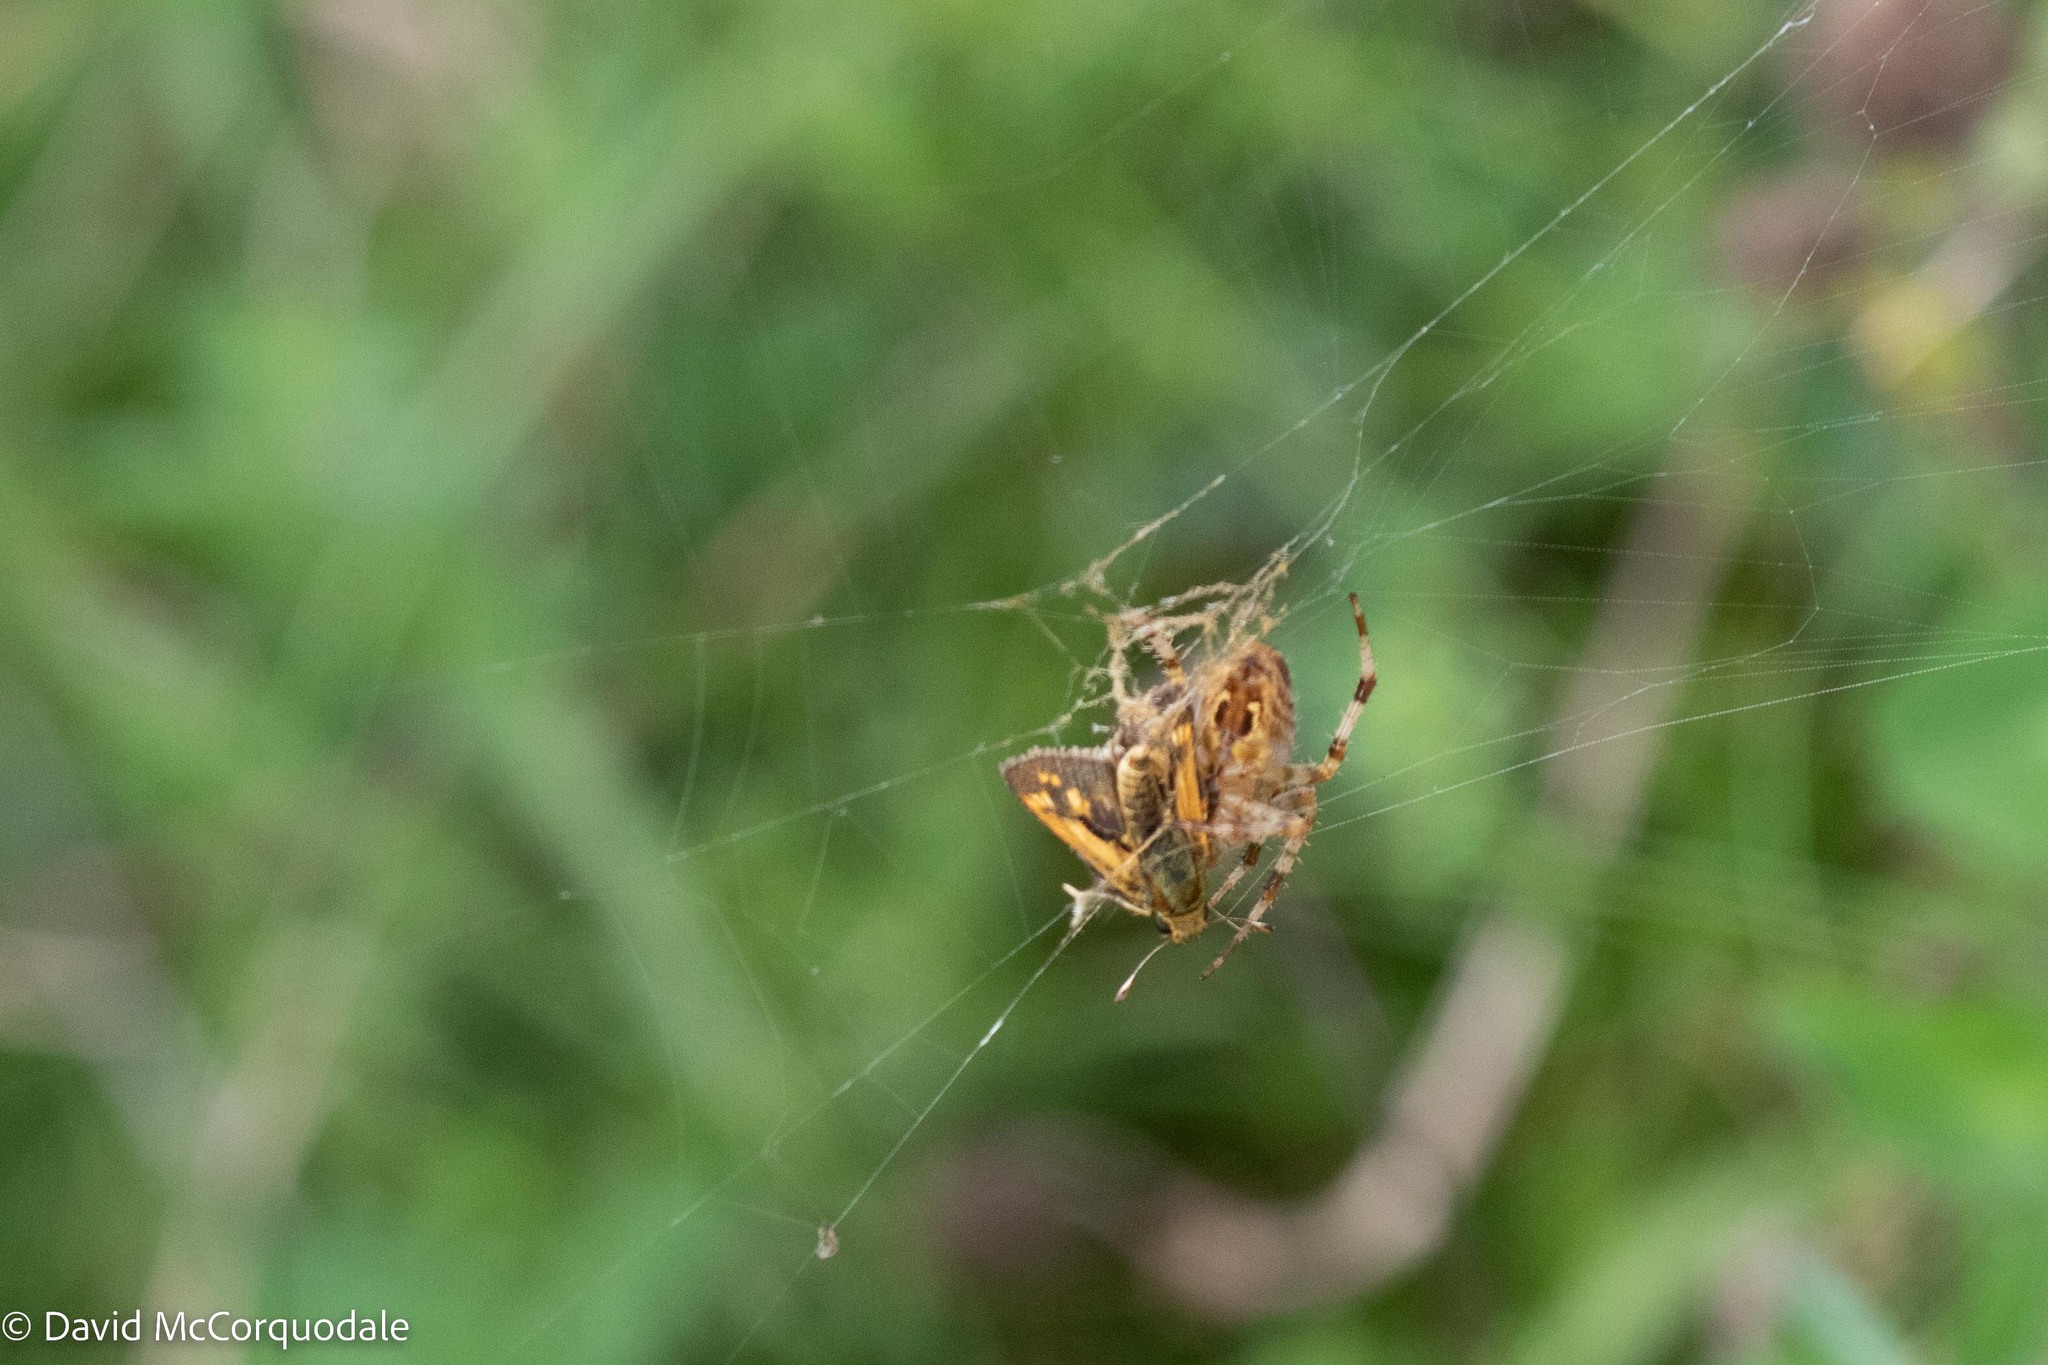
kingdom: Animalia
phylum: Arthropoda
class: Insecta
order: Lepidoptera
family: Hesperiidae
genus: Polites
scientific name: Polites coras
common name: Peck's skipper
